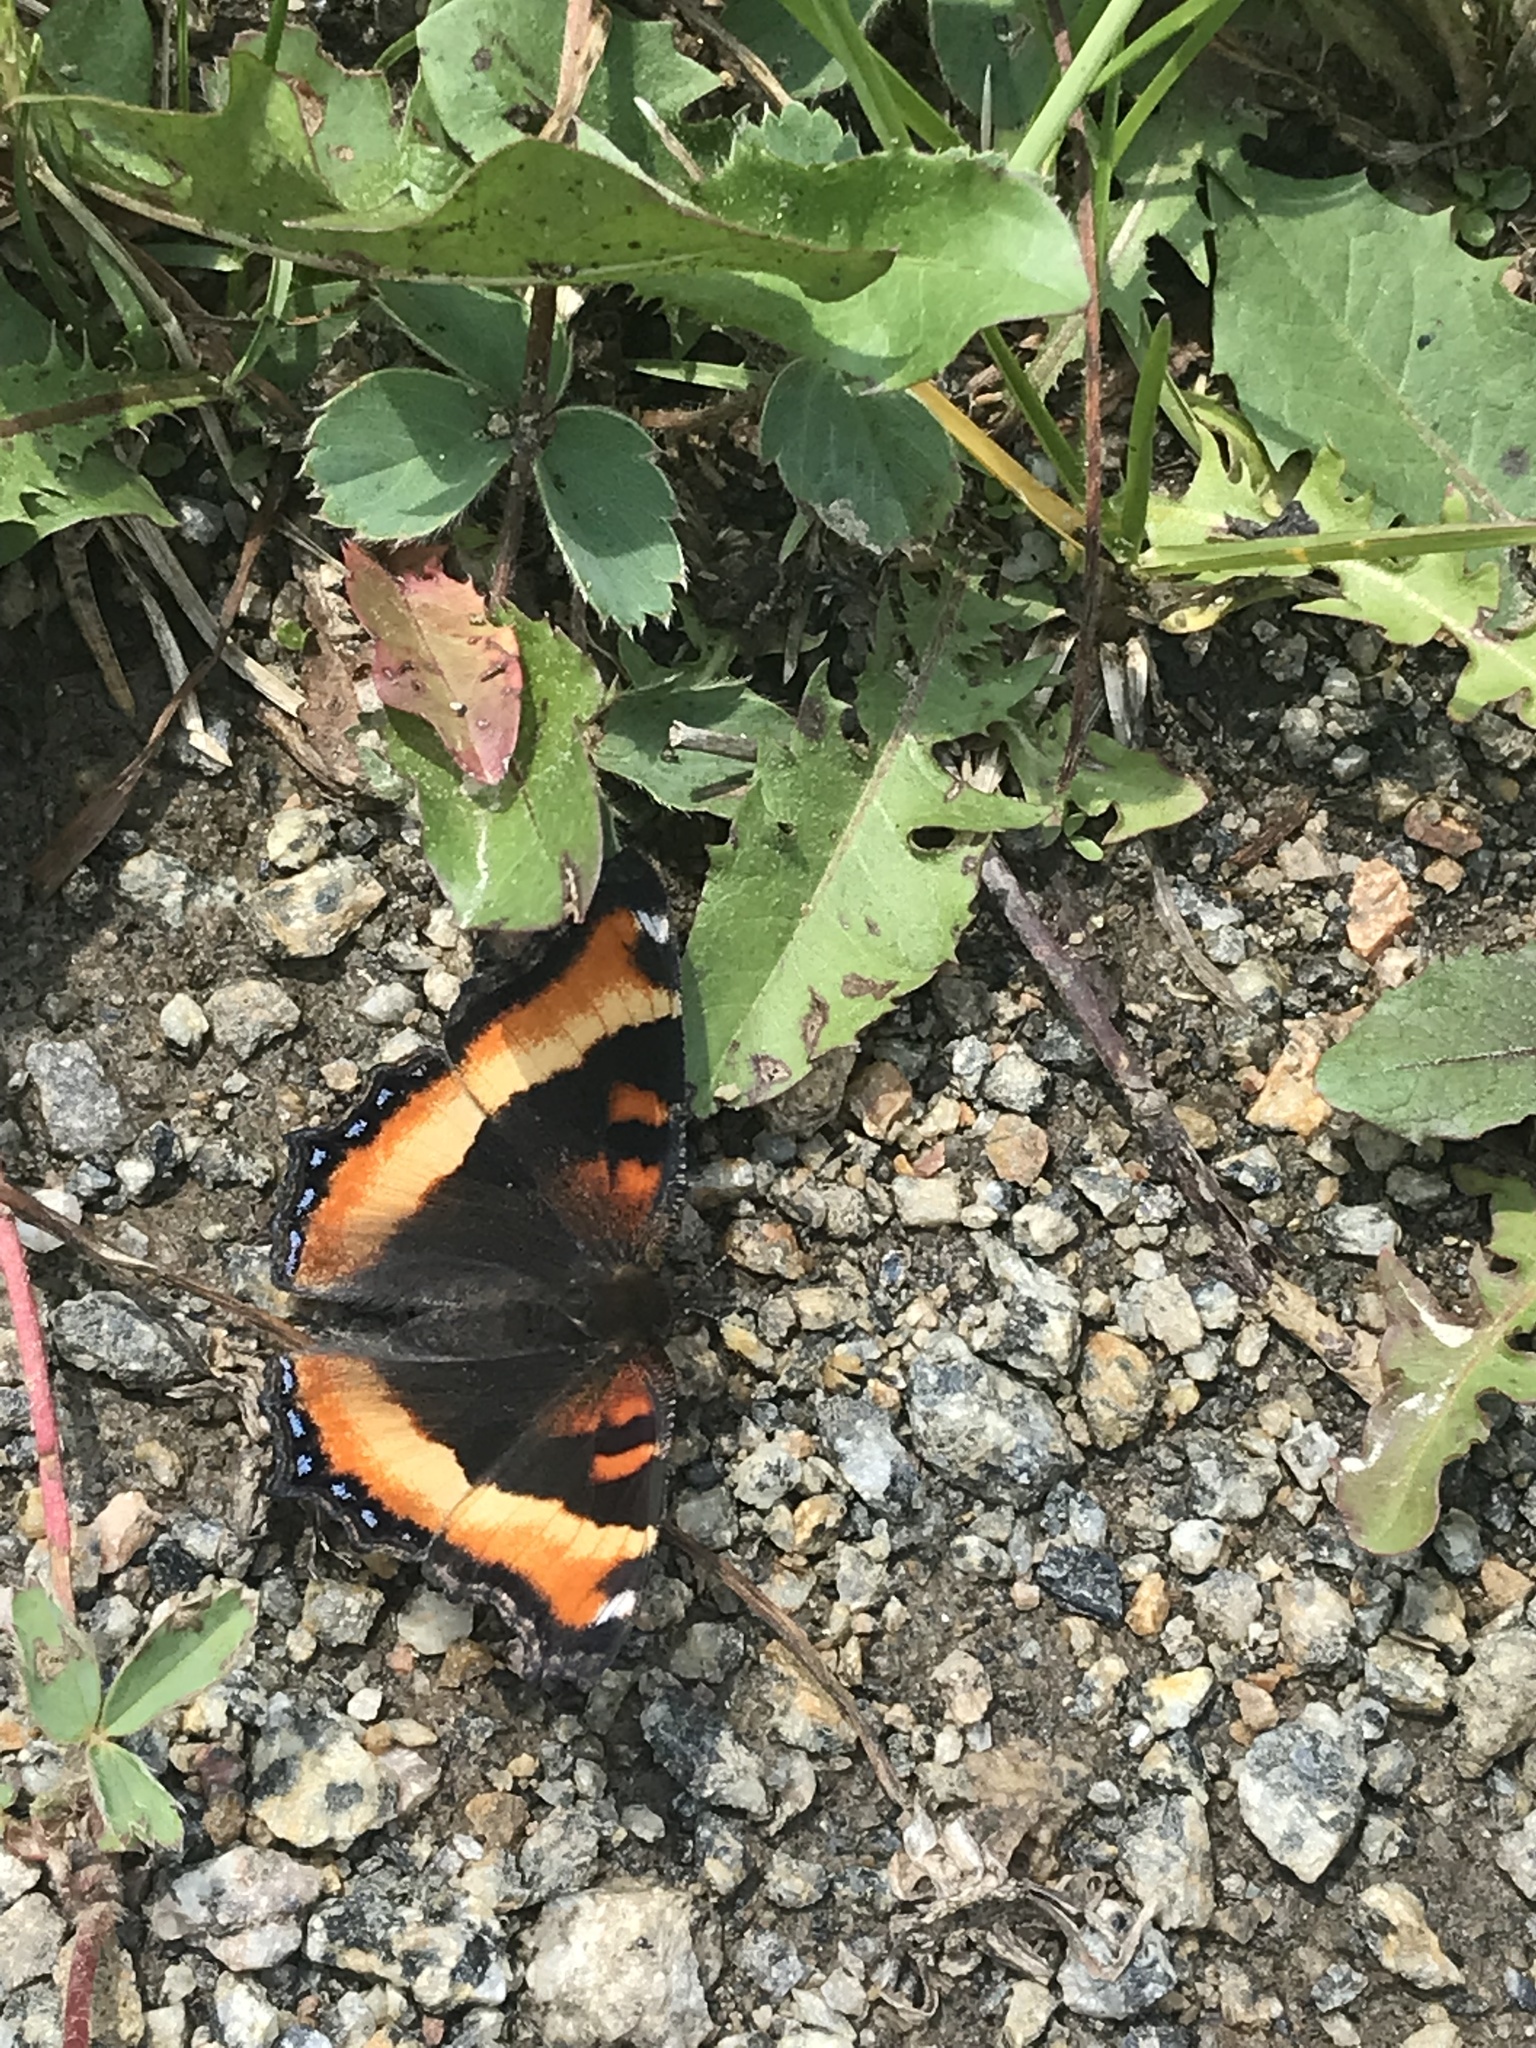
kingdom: Animalia
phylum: Arthropoda
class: Insecta
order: Lepidoptera
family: Nymphalidae
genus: Aglais
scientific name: Aglais milberti
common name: Milbert's tortoiseshell
